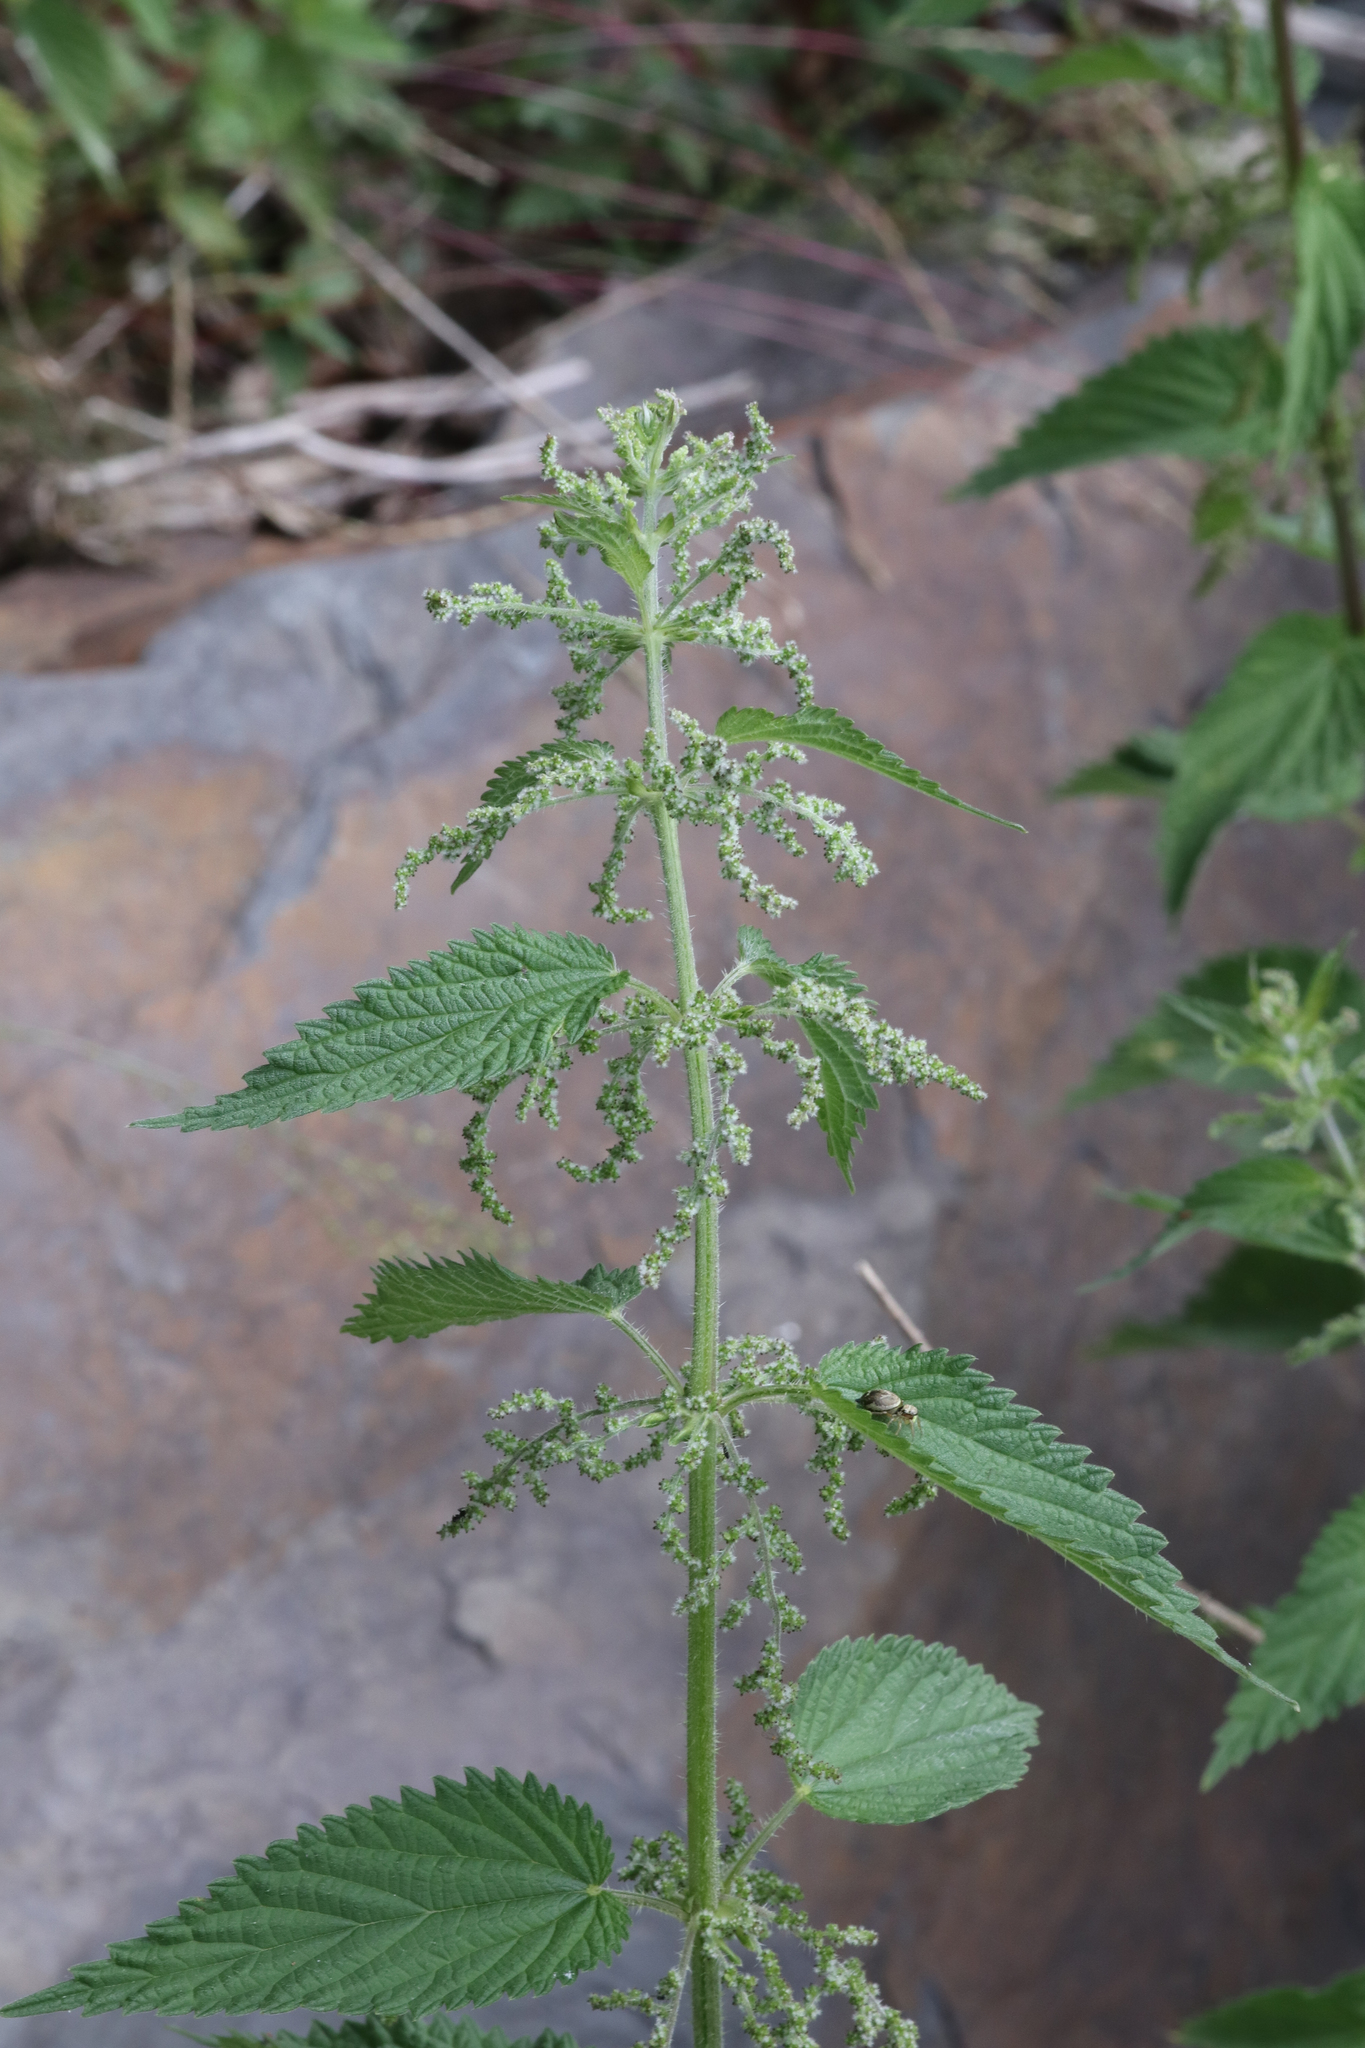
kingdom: Plantae
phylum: Tracheophyta
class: Magnoliopsida
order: Rosales
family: Urticaceae
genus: Urtica
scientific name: Urtica dioica
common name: Common nettle
